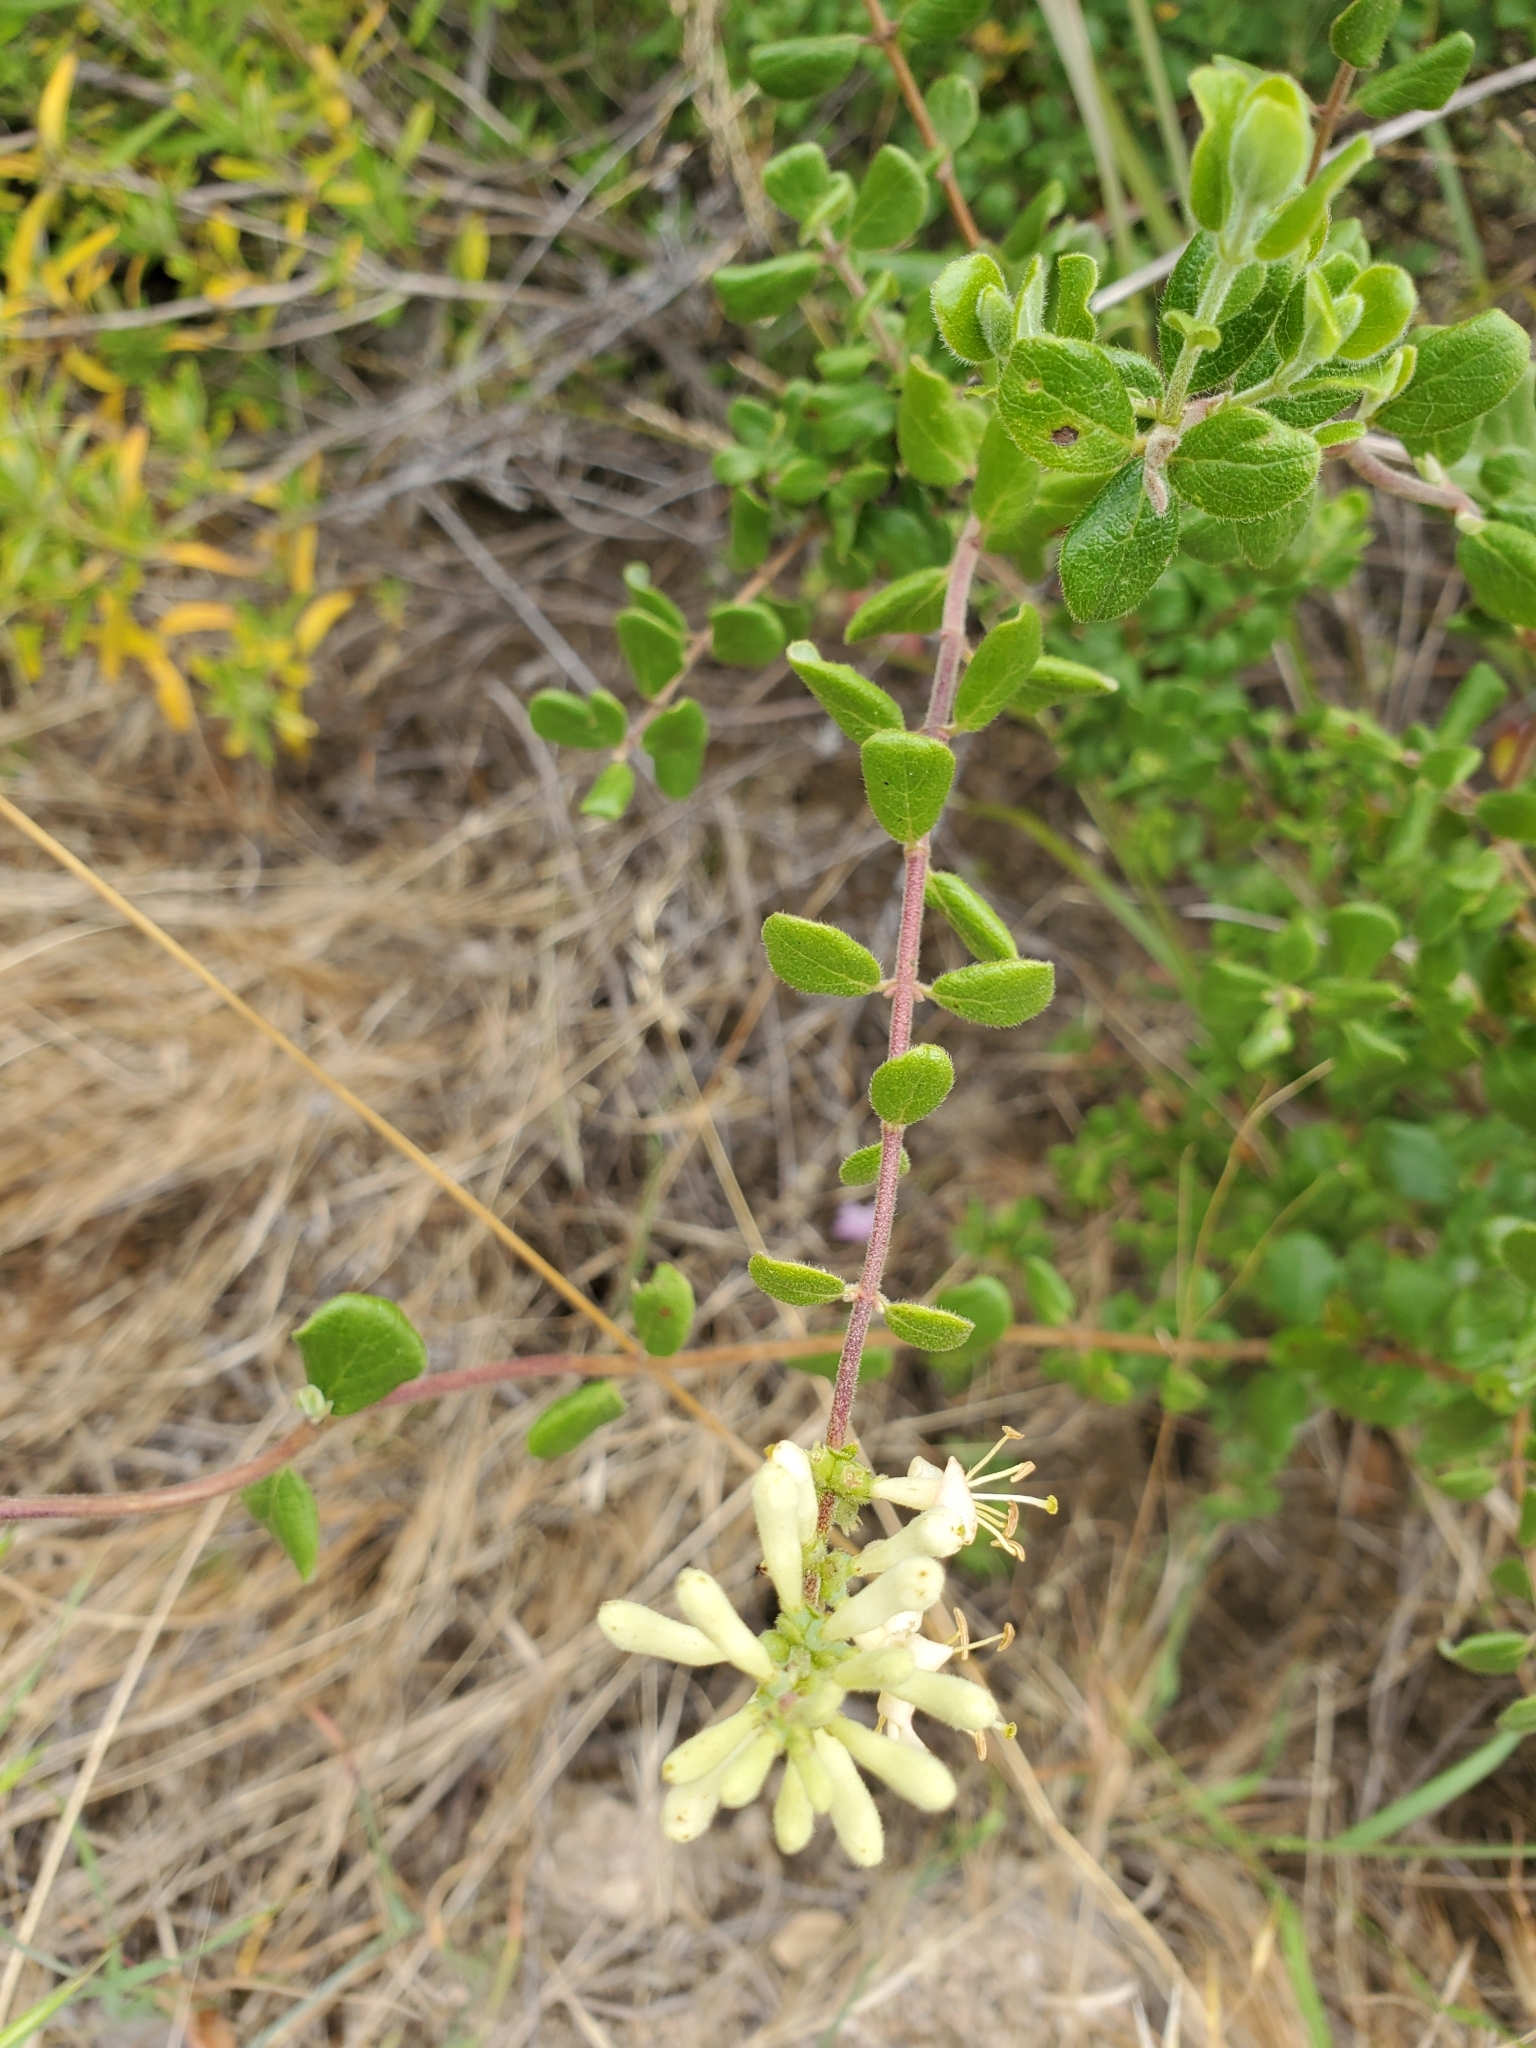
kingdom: Plantae
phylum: Tracheophyta
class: Magnoliopsida
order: Dipsacales
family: Caprifoliaceae
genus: Lonicera
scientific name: Lonicera subspicata
